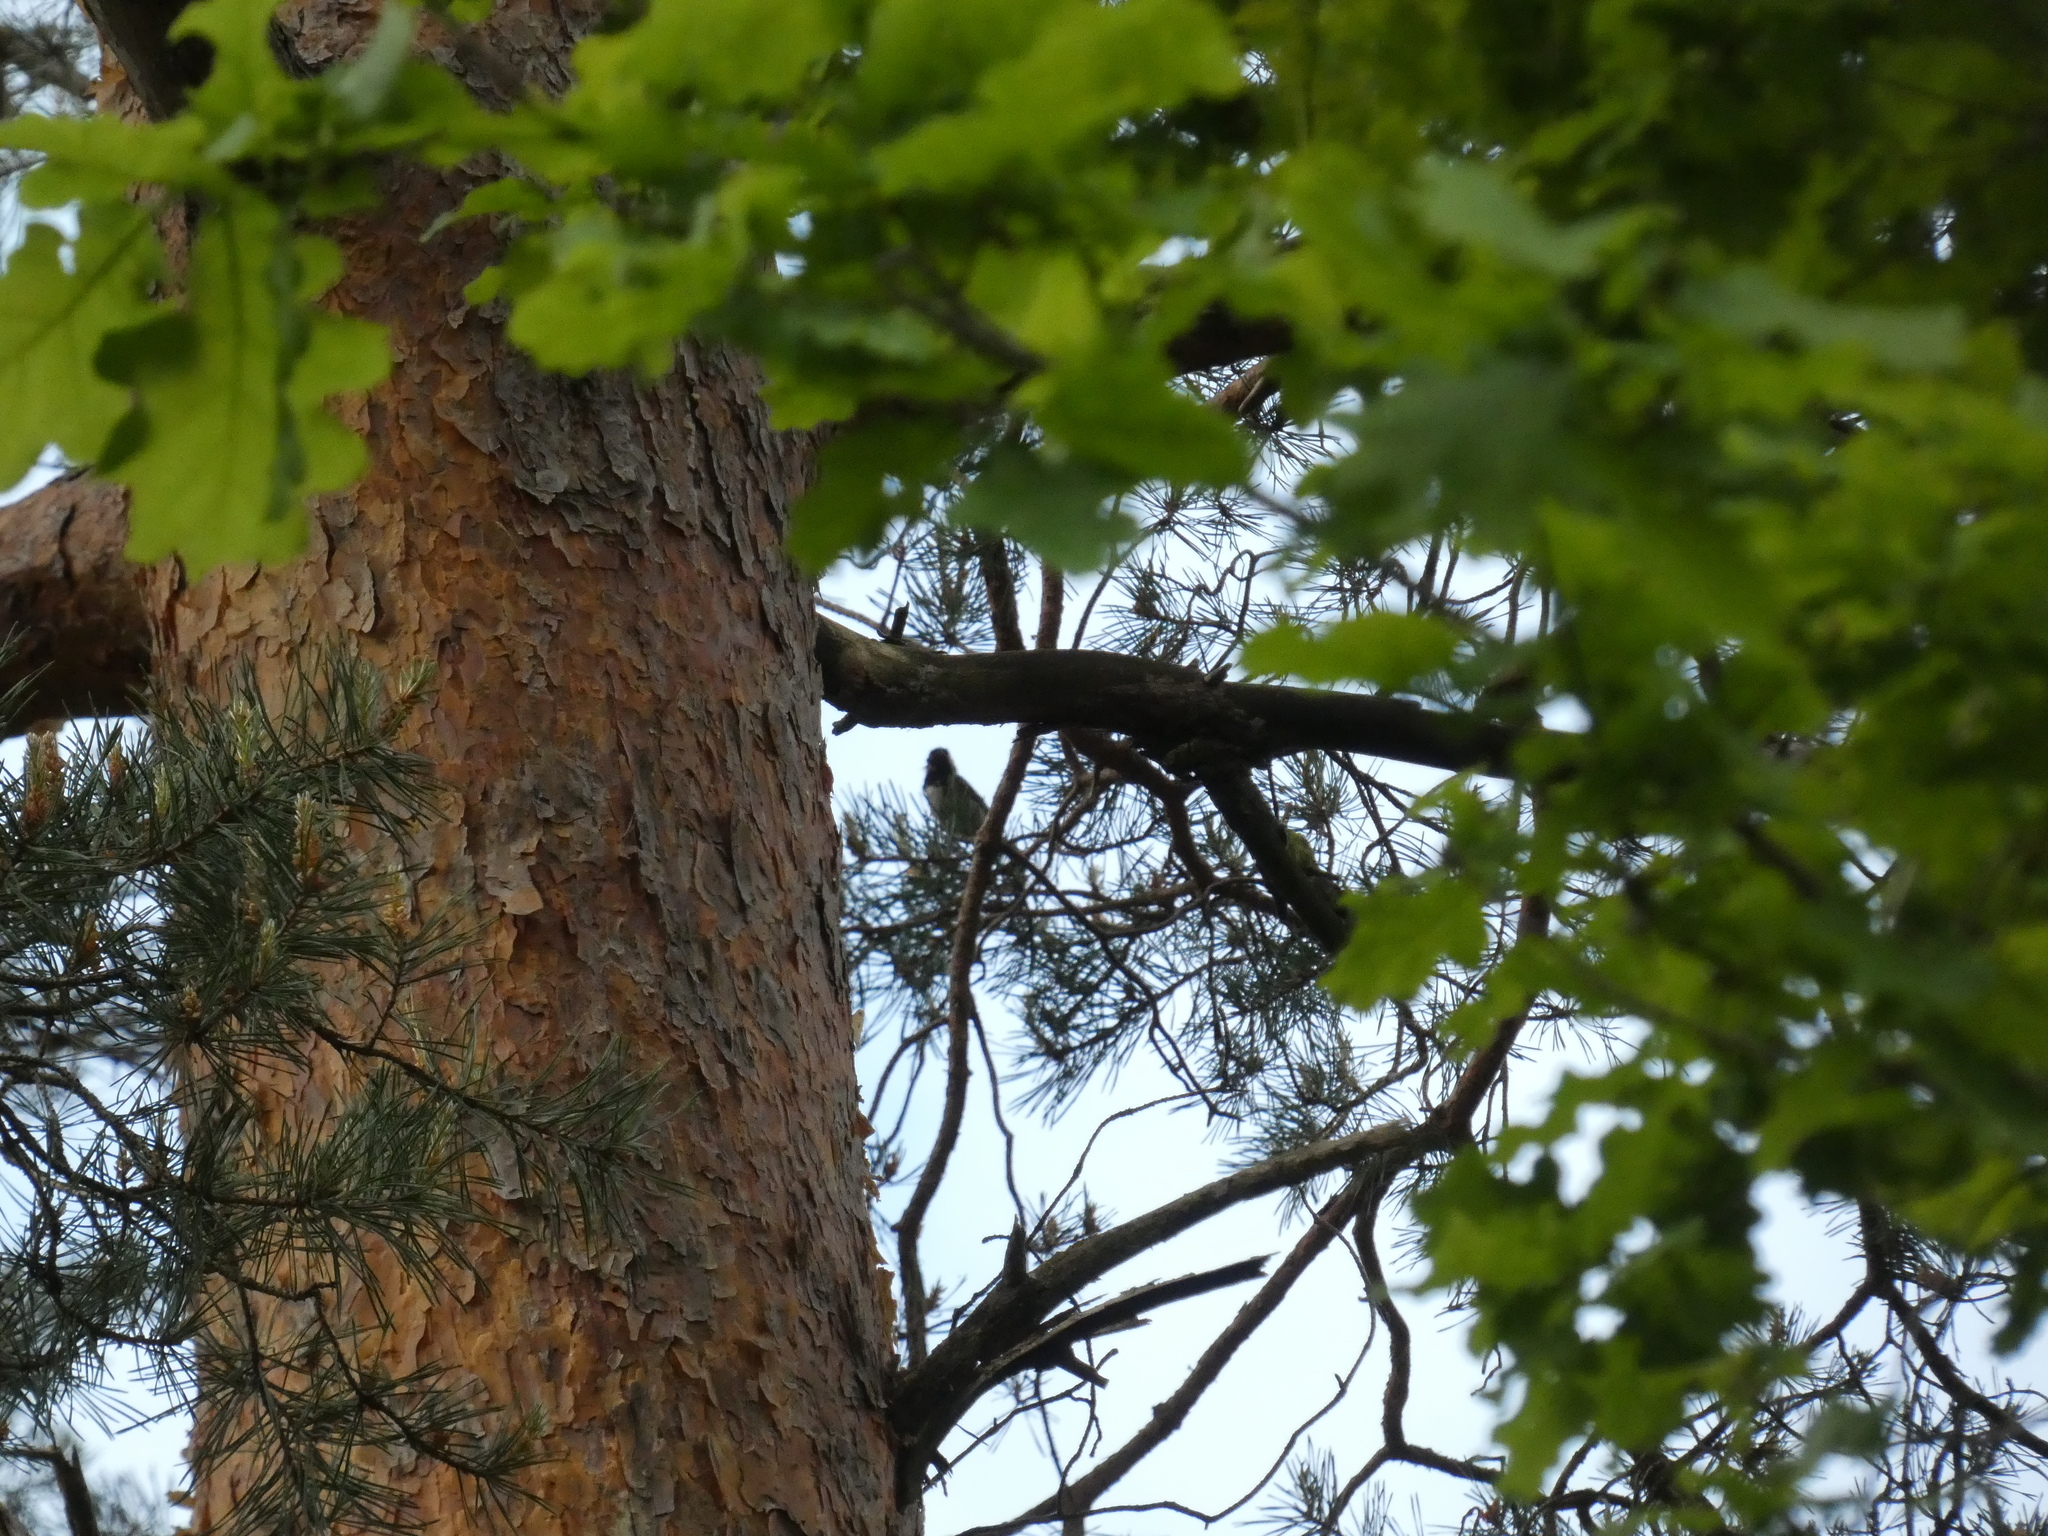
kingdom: Animalia
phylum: Chordata
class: Aves
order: Passeriformes
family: Paridae
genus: Periparus
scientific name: Periparus ater
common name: Coal tit
